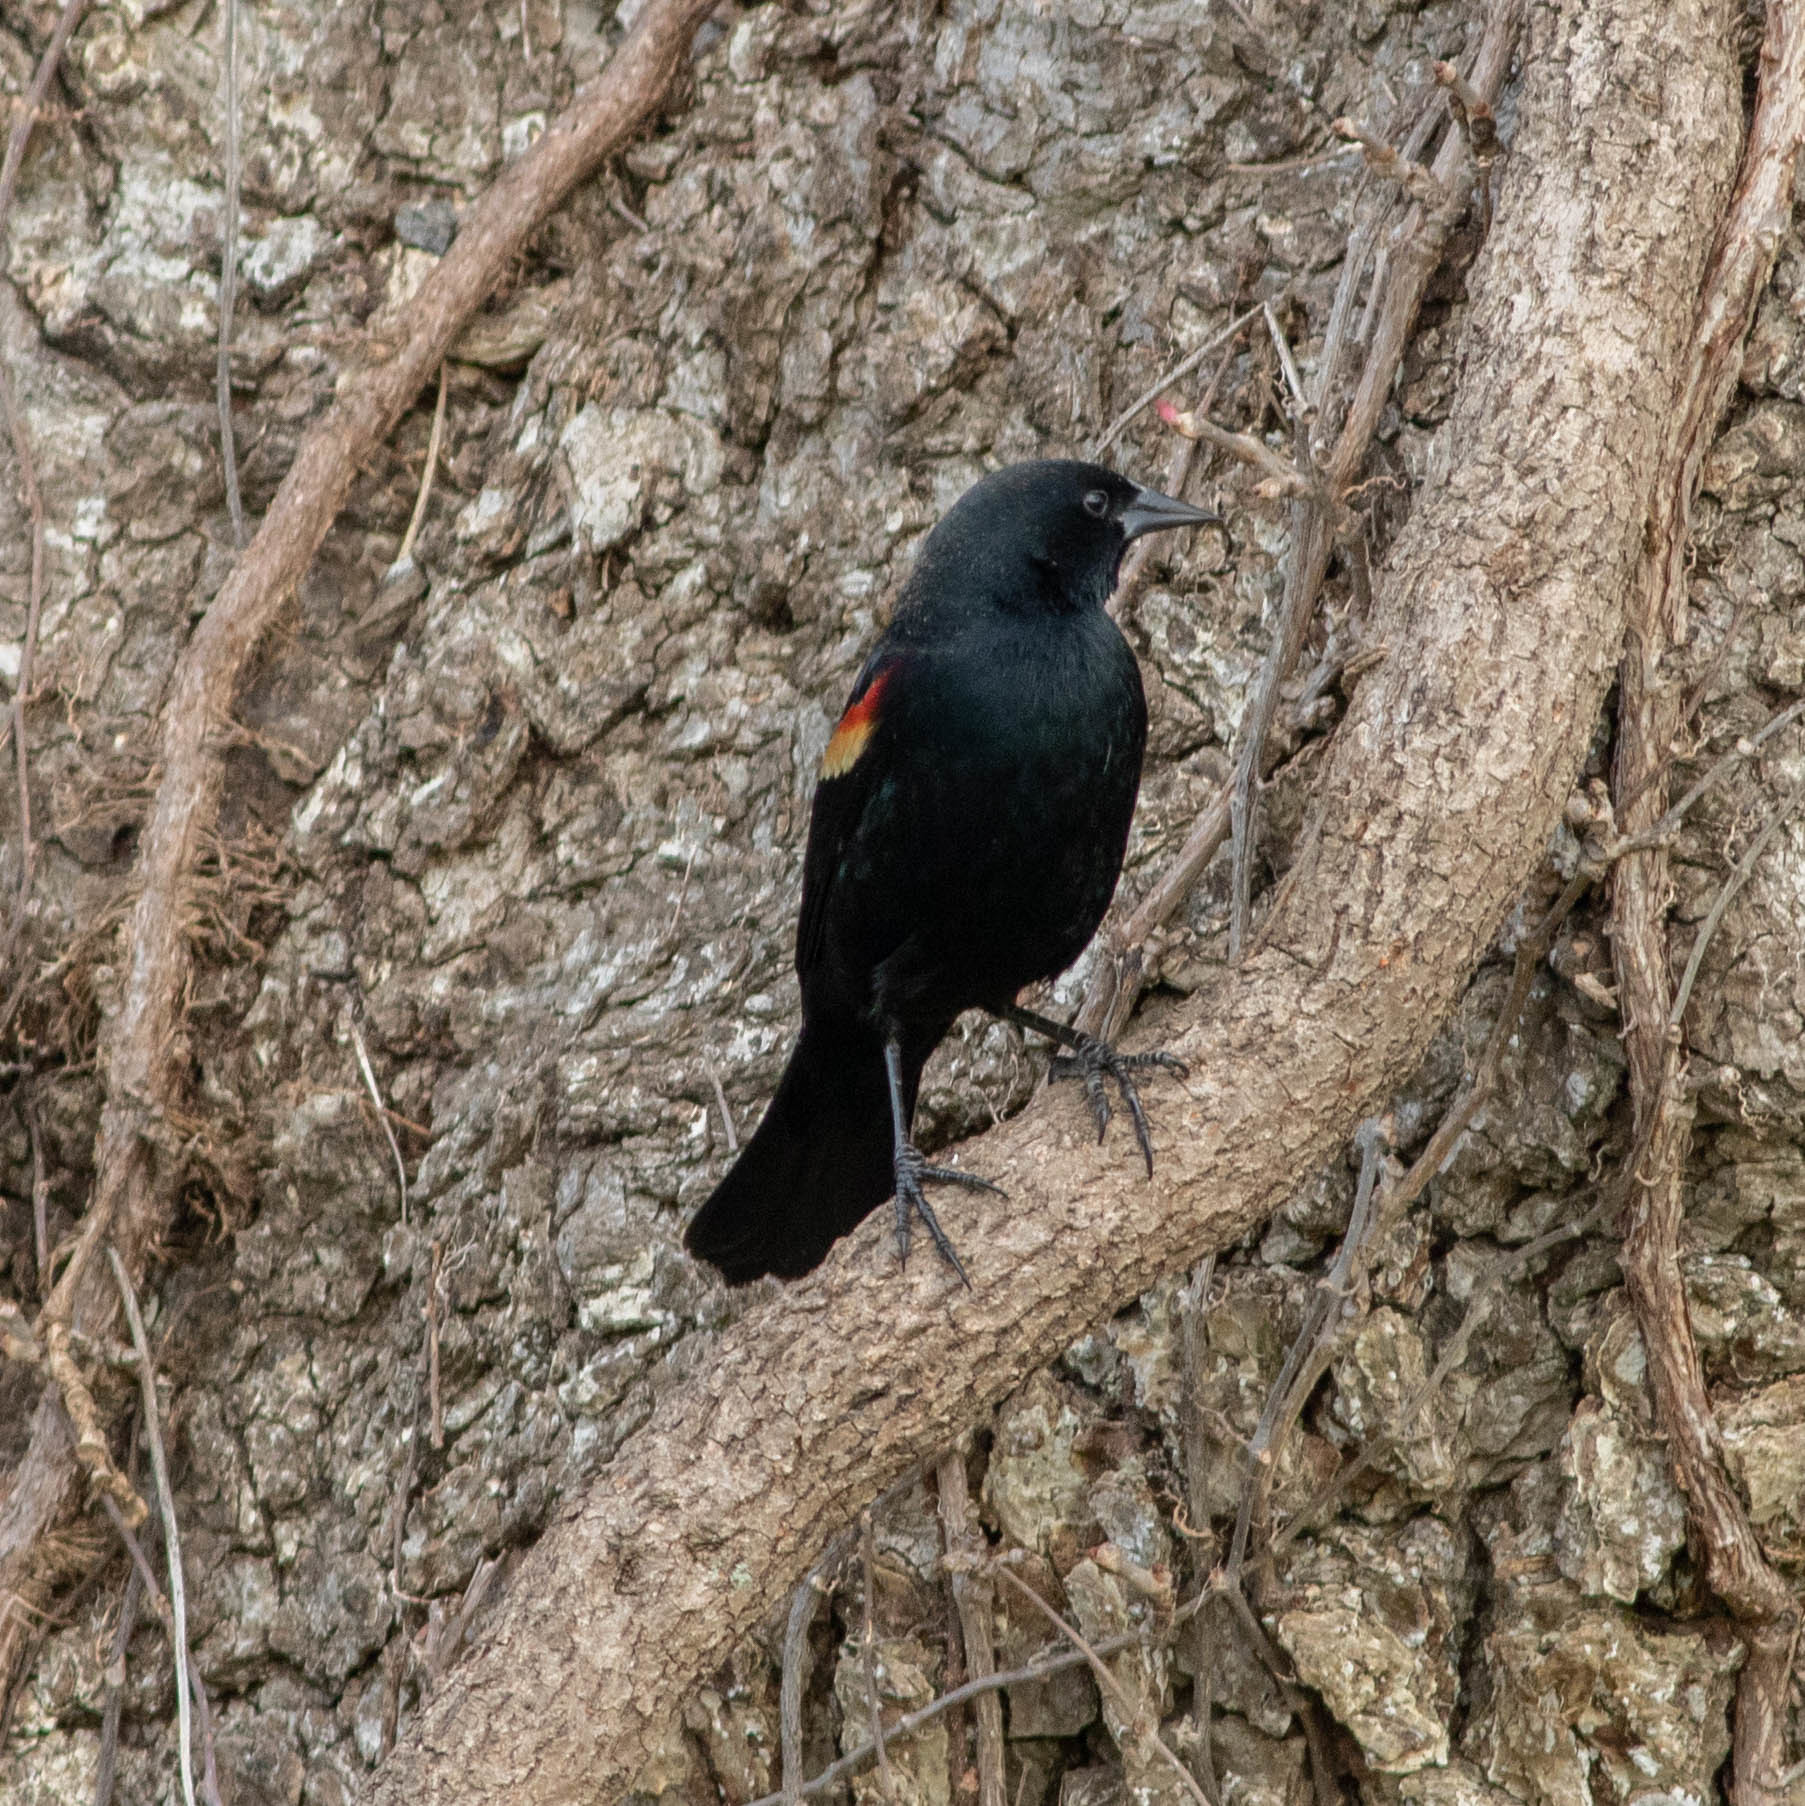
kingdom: Animalia
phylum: Chordata
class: Aves
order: Passeriformes
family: Icteridae
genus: Agelaius
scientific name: Agelaius phoeniceus
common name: Red-winged blackbird
